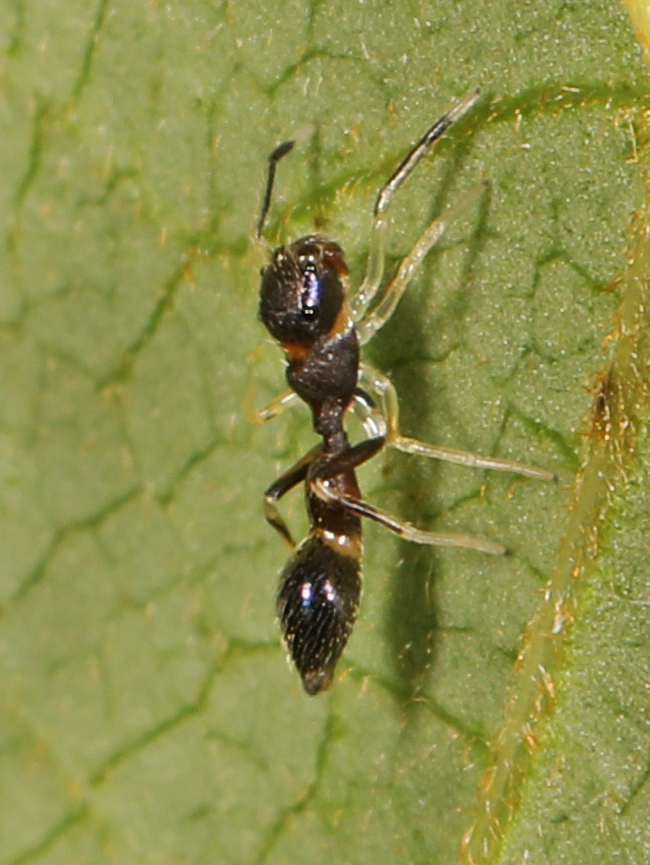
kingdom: Animalia
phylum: Arthropoda
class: Arachnida
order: Araneae
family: Salticidae
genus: Synemosyna
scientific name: Synemosyna formica
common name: Slender ant-mimic jumping spider
